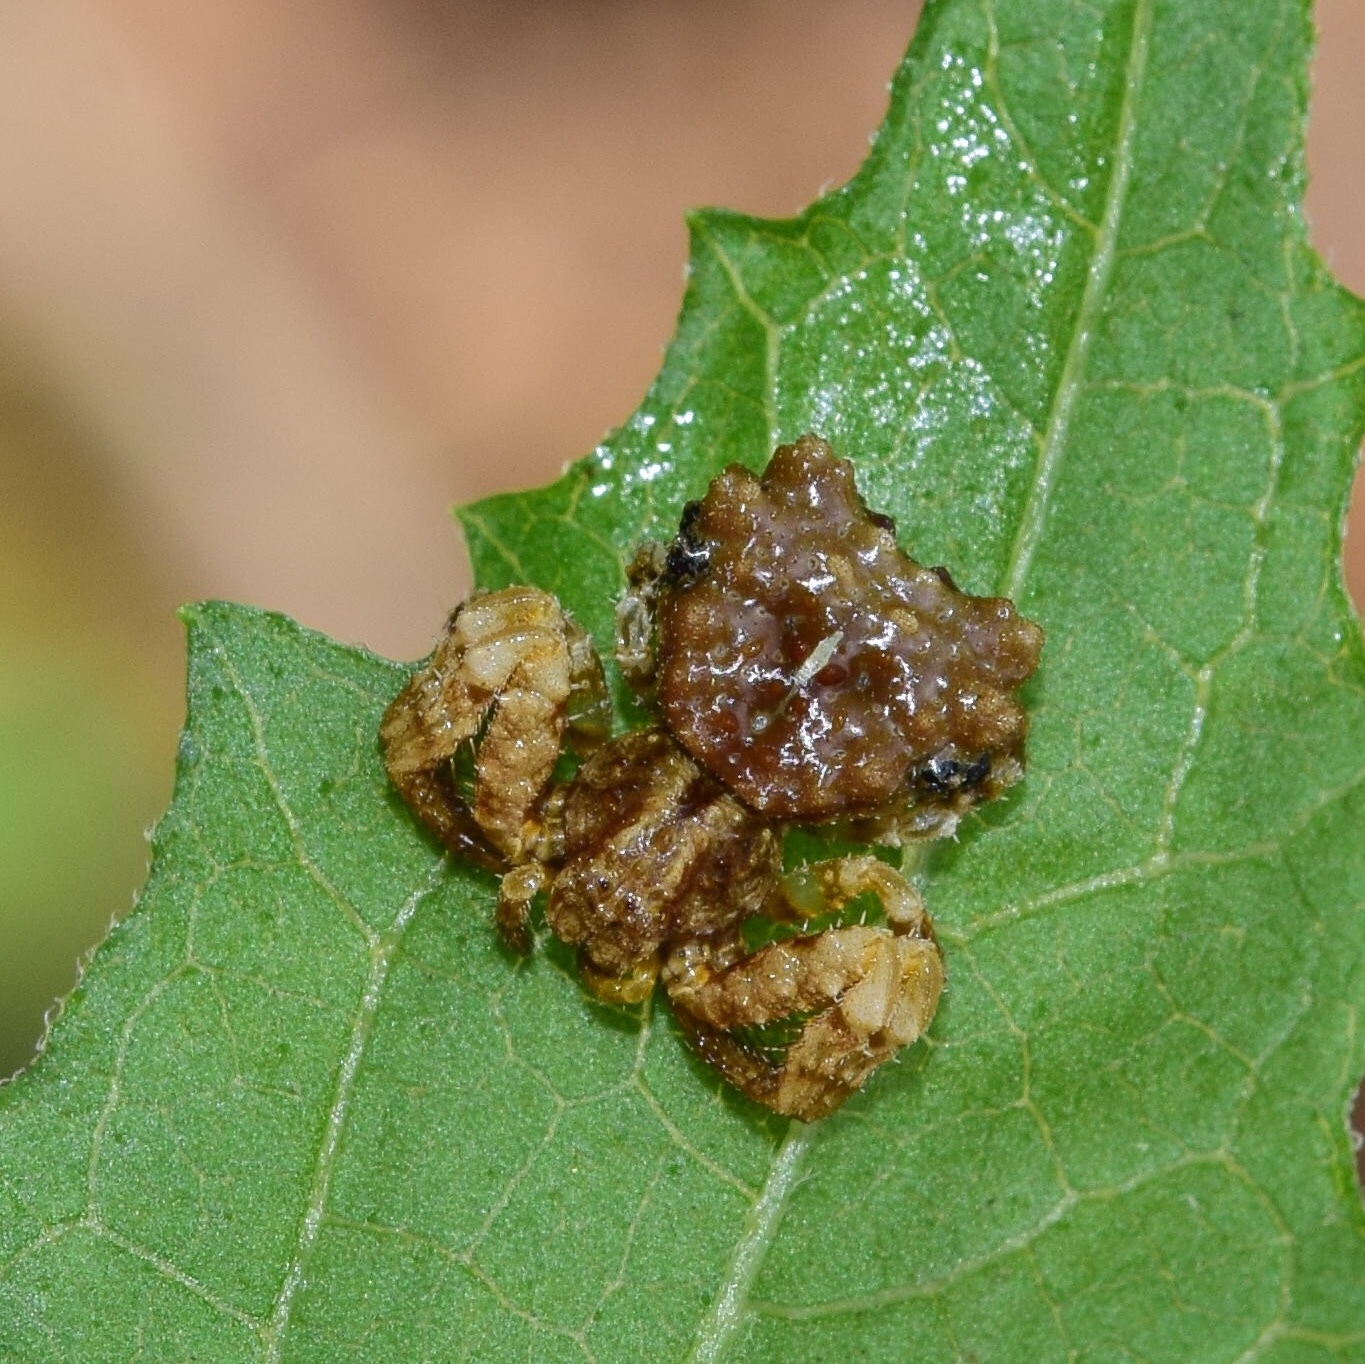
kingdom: Animalia
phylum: Arthropoda
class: Arachnida
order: Araneae
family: Thomisidae
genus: Phrynarachne
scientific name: Phrynarachne rugosa
